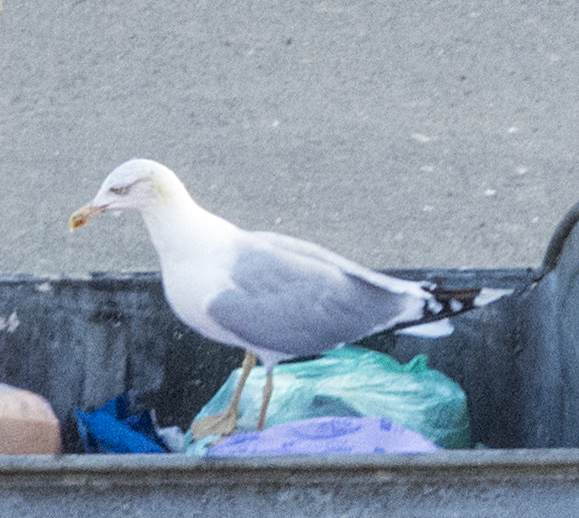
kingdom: Animalia
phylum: Chordata
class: Aves
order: Charadriiformes
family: Laridae
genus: Larus
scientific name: Larus michahellis
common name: Yellow-legged gull
